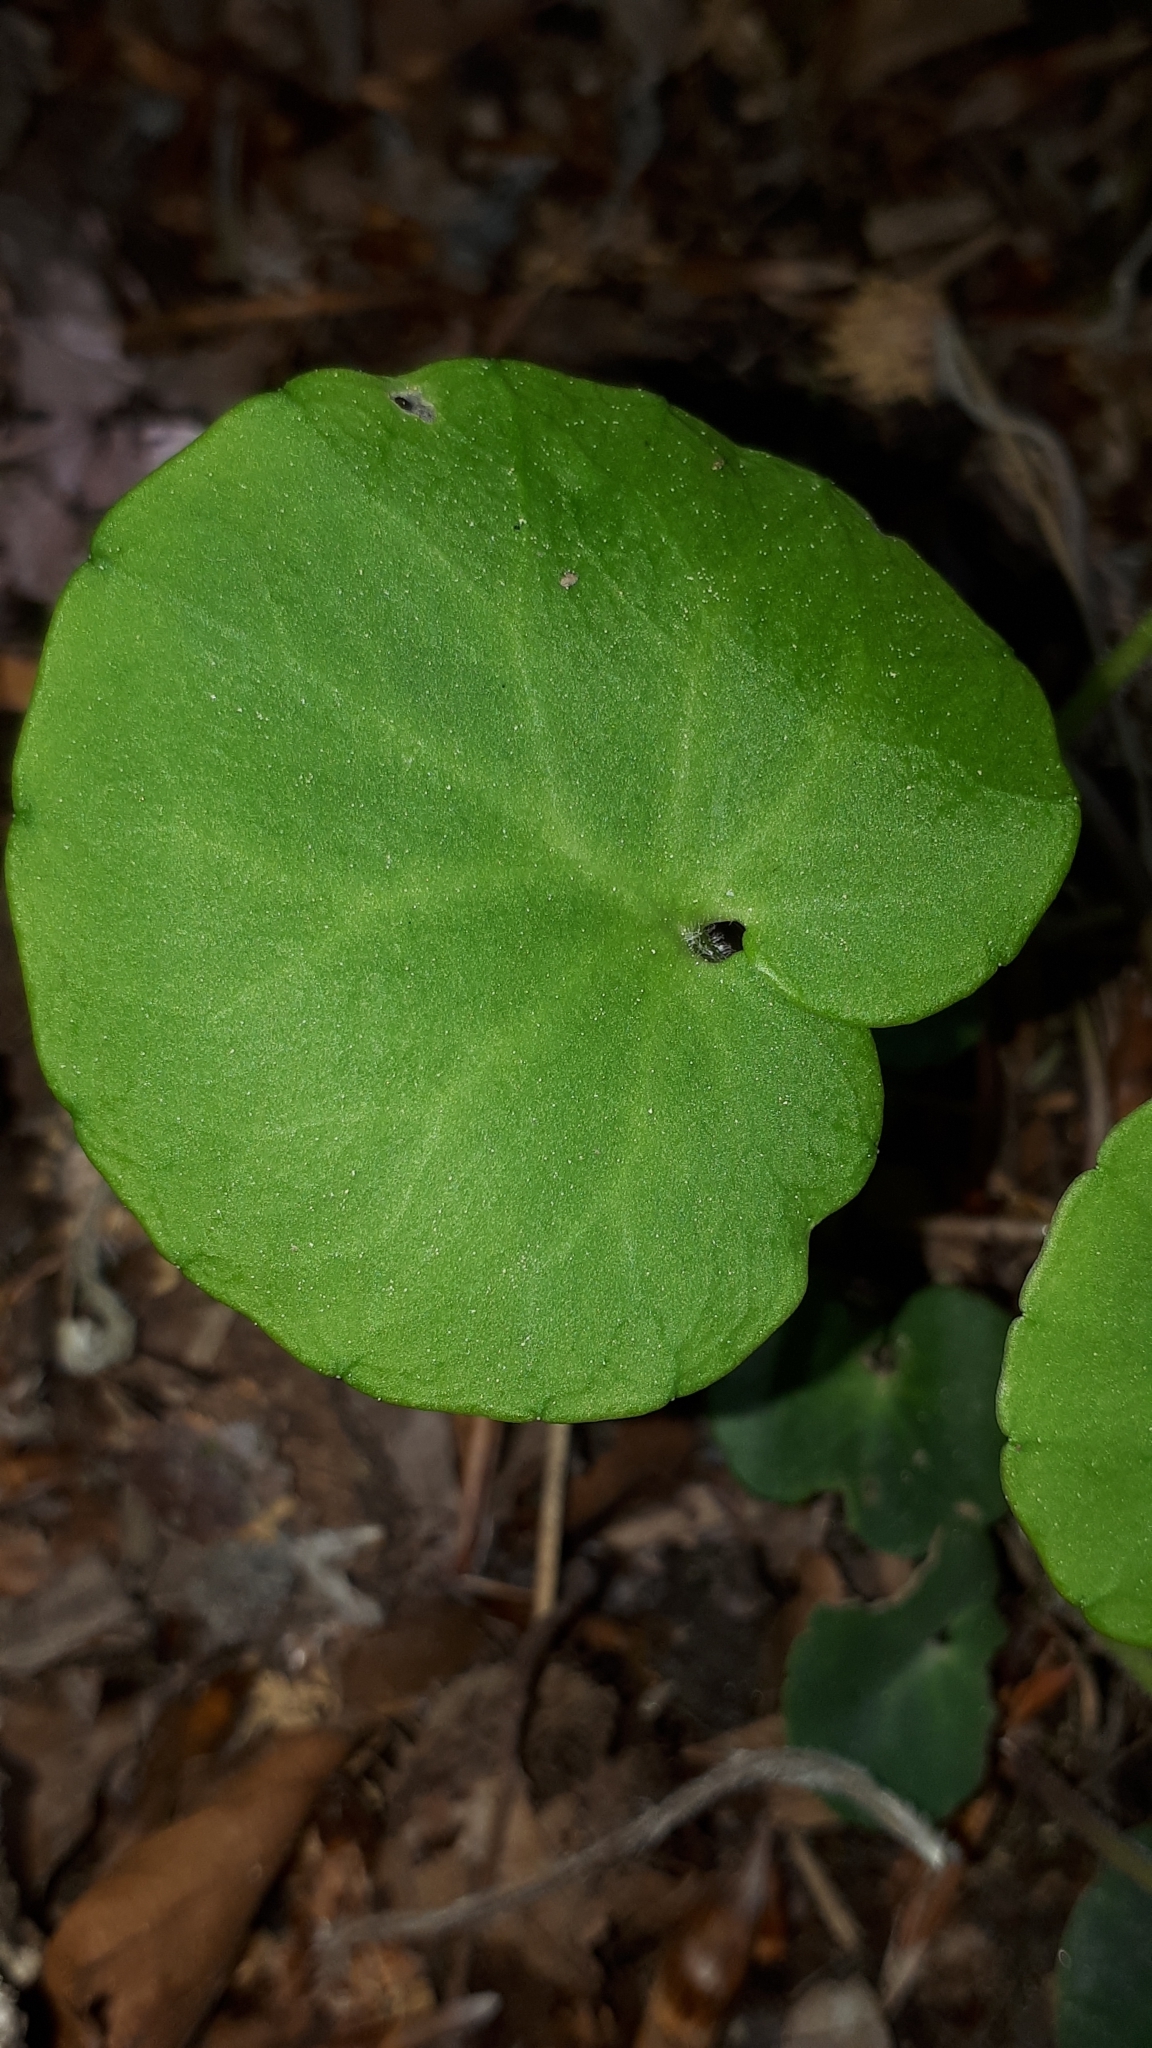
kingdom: Plantae
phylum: Tracheophyta
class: Magnoliopsida
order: Piperales
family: Aristolochiaceae
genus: Asarum
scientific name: Asarum europaeum
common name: Asarabacca
